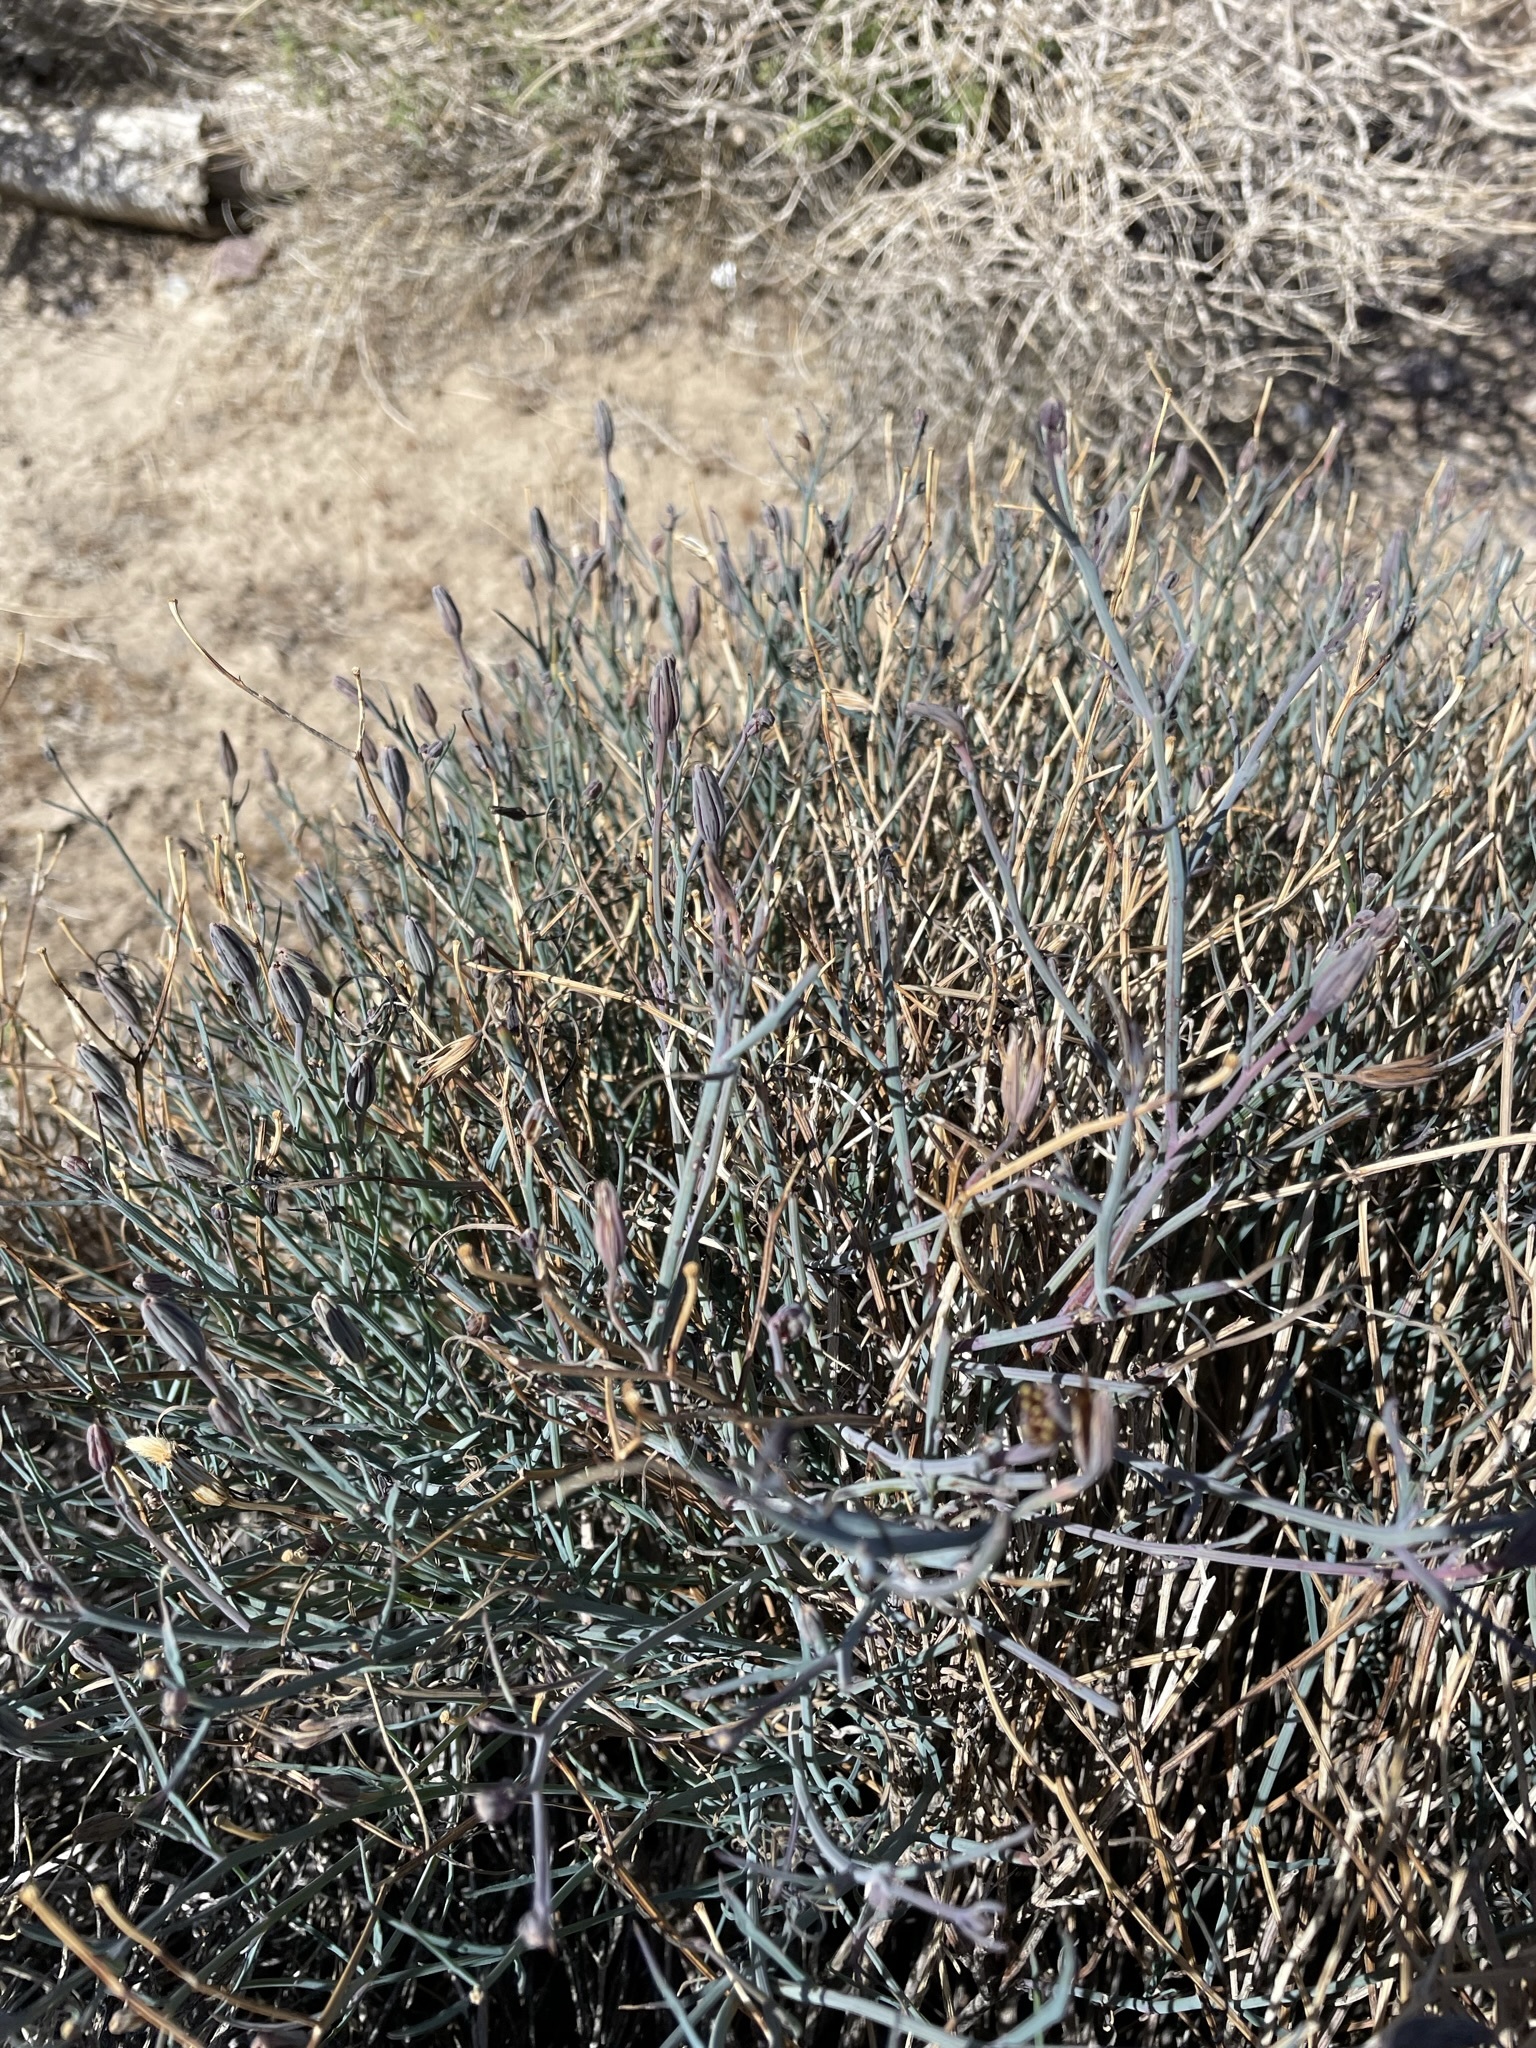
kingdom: Plantae
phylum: Tracheophyta
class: Magnoliopsida
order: Asterales
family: Asteraceae
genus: Porophyllum
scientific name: Porophyllum gracile
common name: Odora
